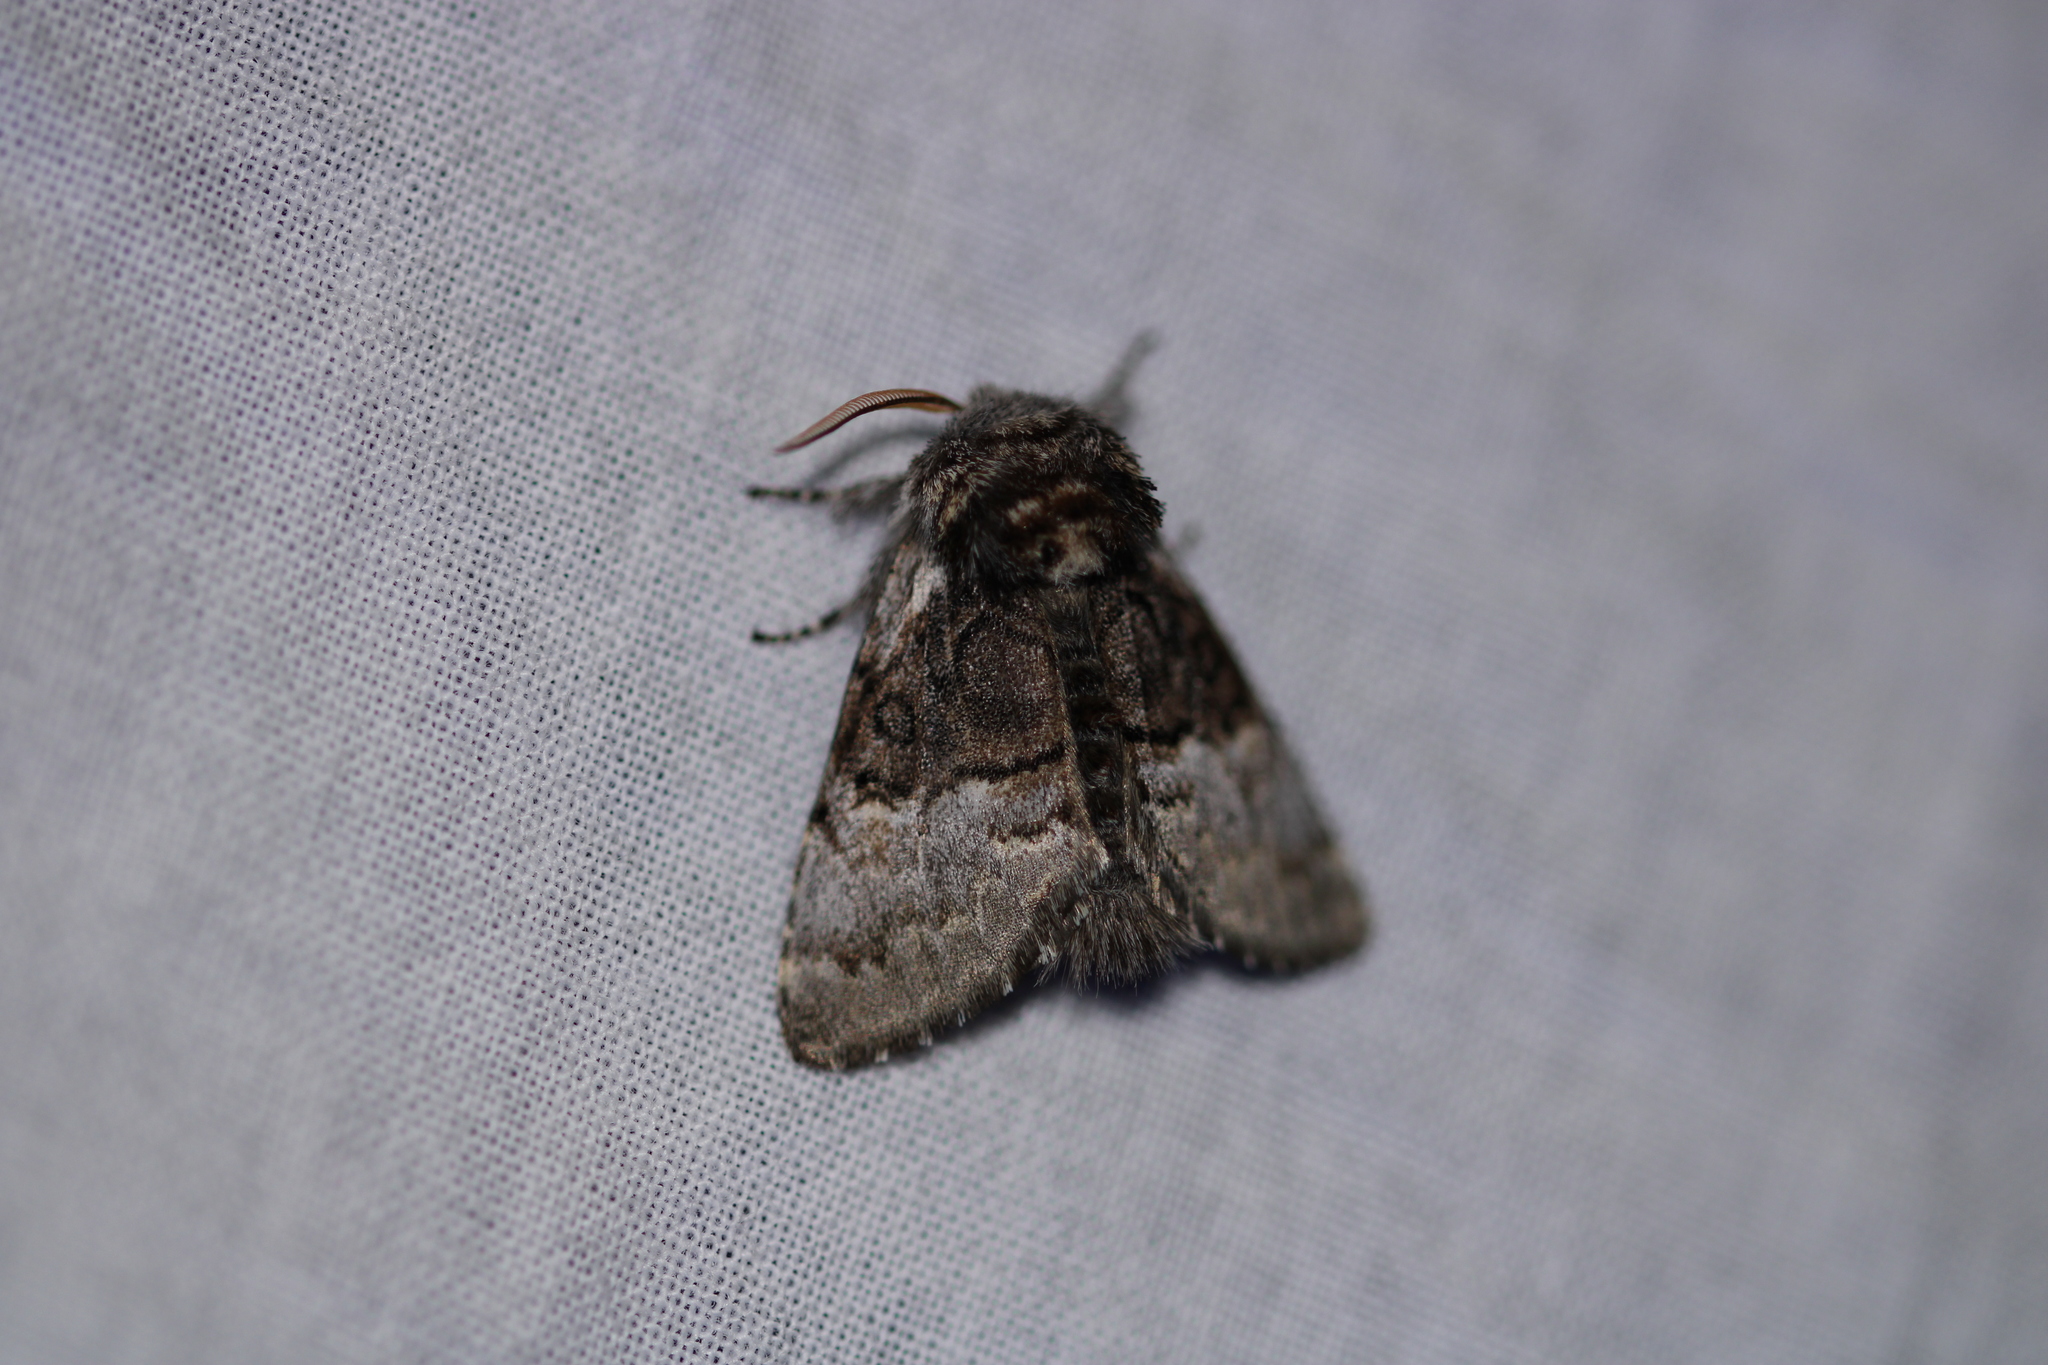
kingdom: Animalia
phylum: Arthropoda
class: Insecta
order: Lepidoptera
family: Noctuidae
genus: Colocasia
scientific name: Colocasia coryli
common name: Nut-tree tussock
